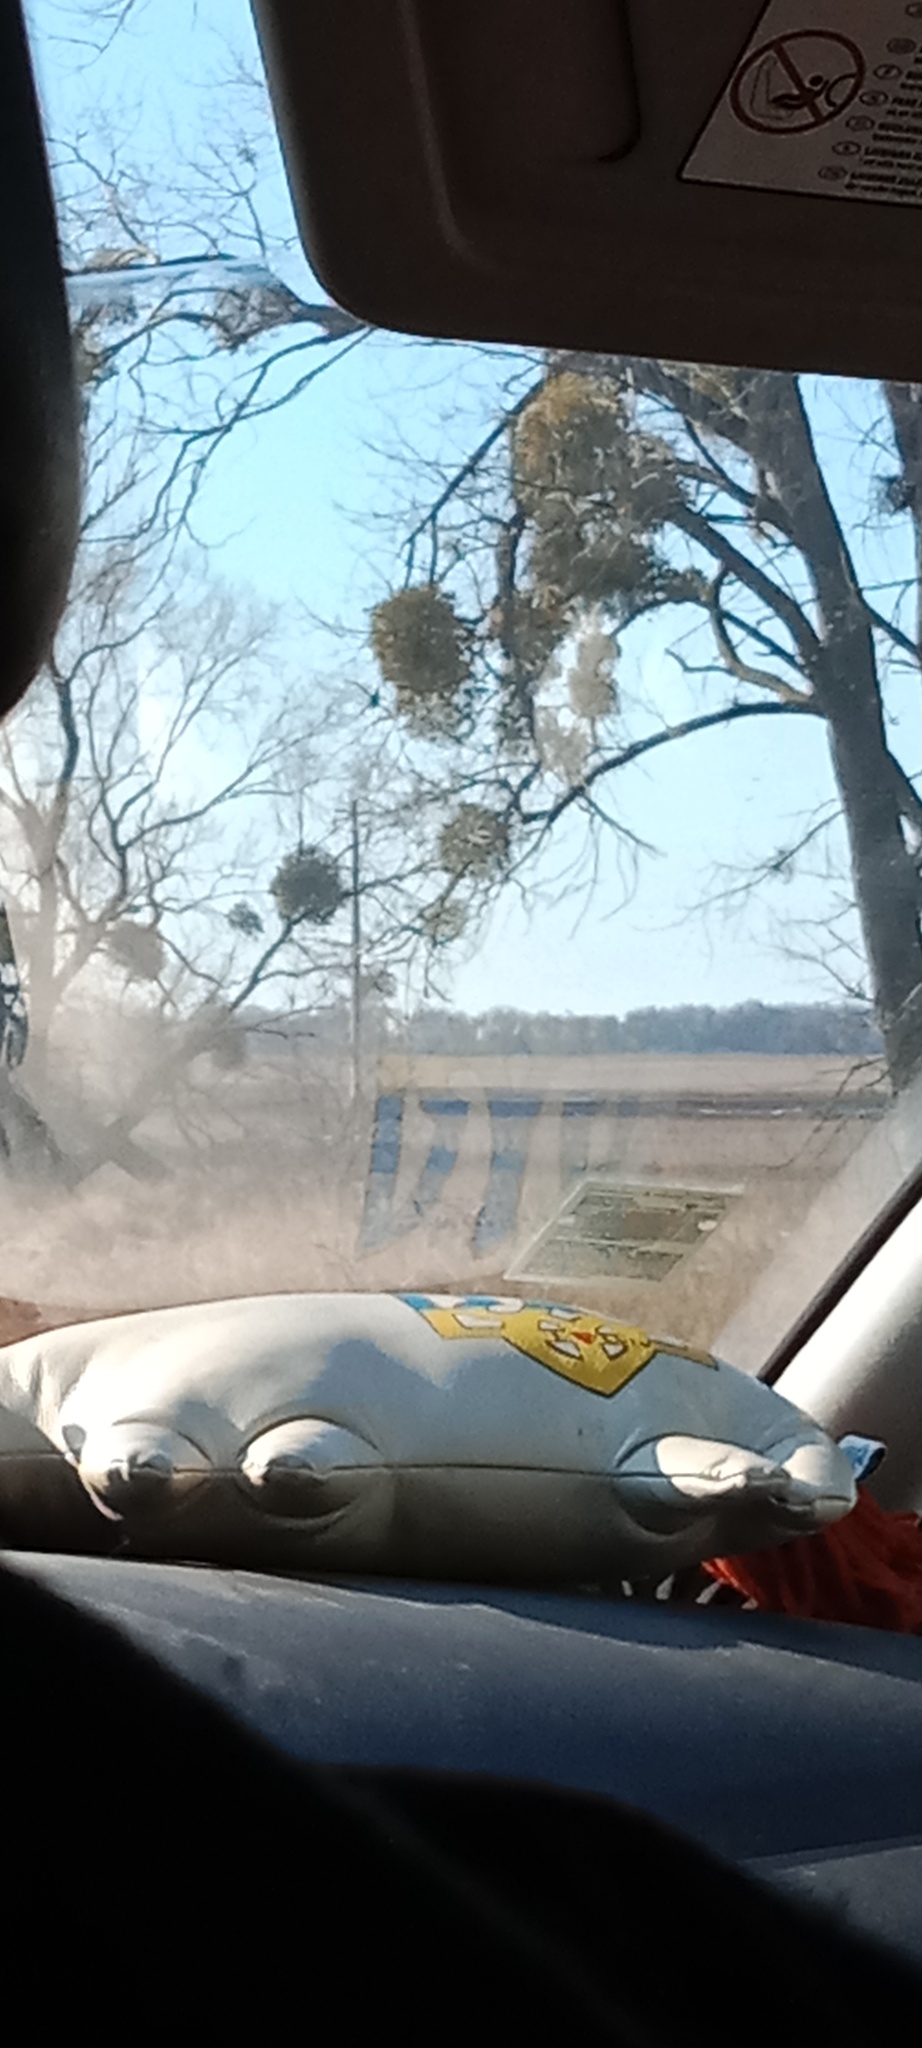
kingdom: Plantae
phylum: Tracheophyta
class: Magnoliopsida
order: Santalales
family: Viscaceae
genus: Viscum
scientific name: Viscum album
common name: Mistletoe
